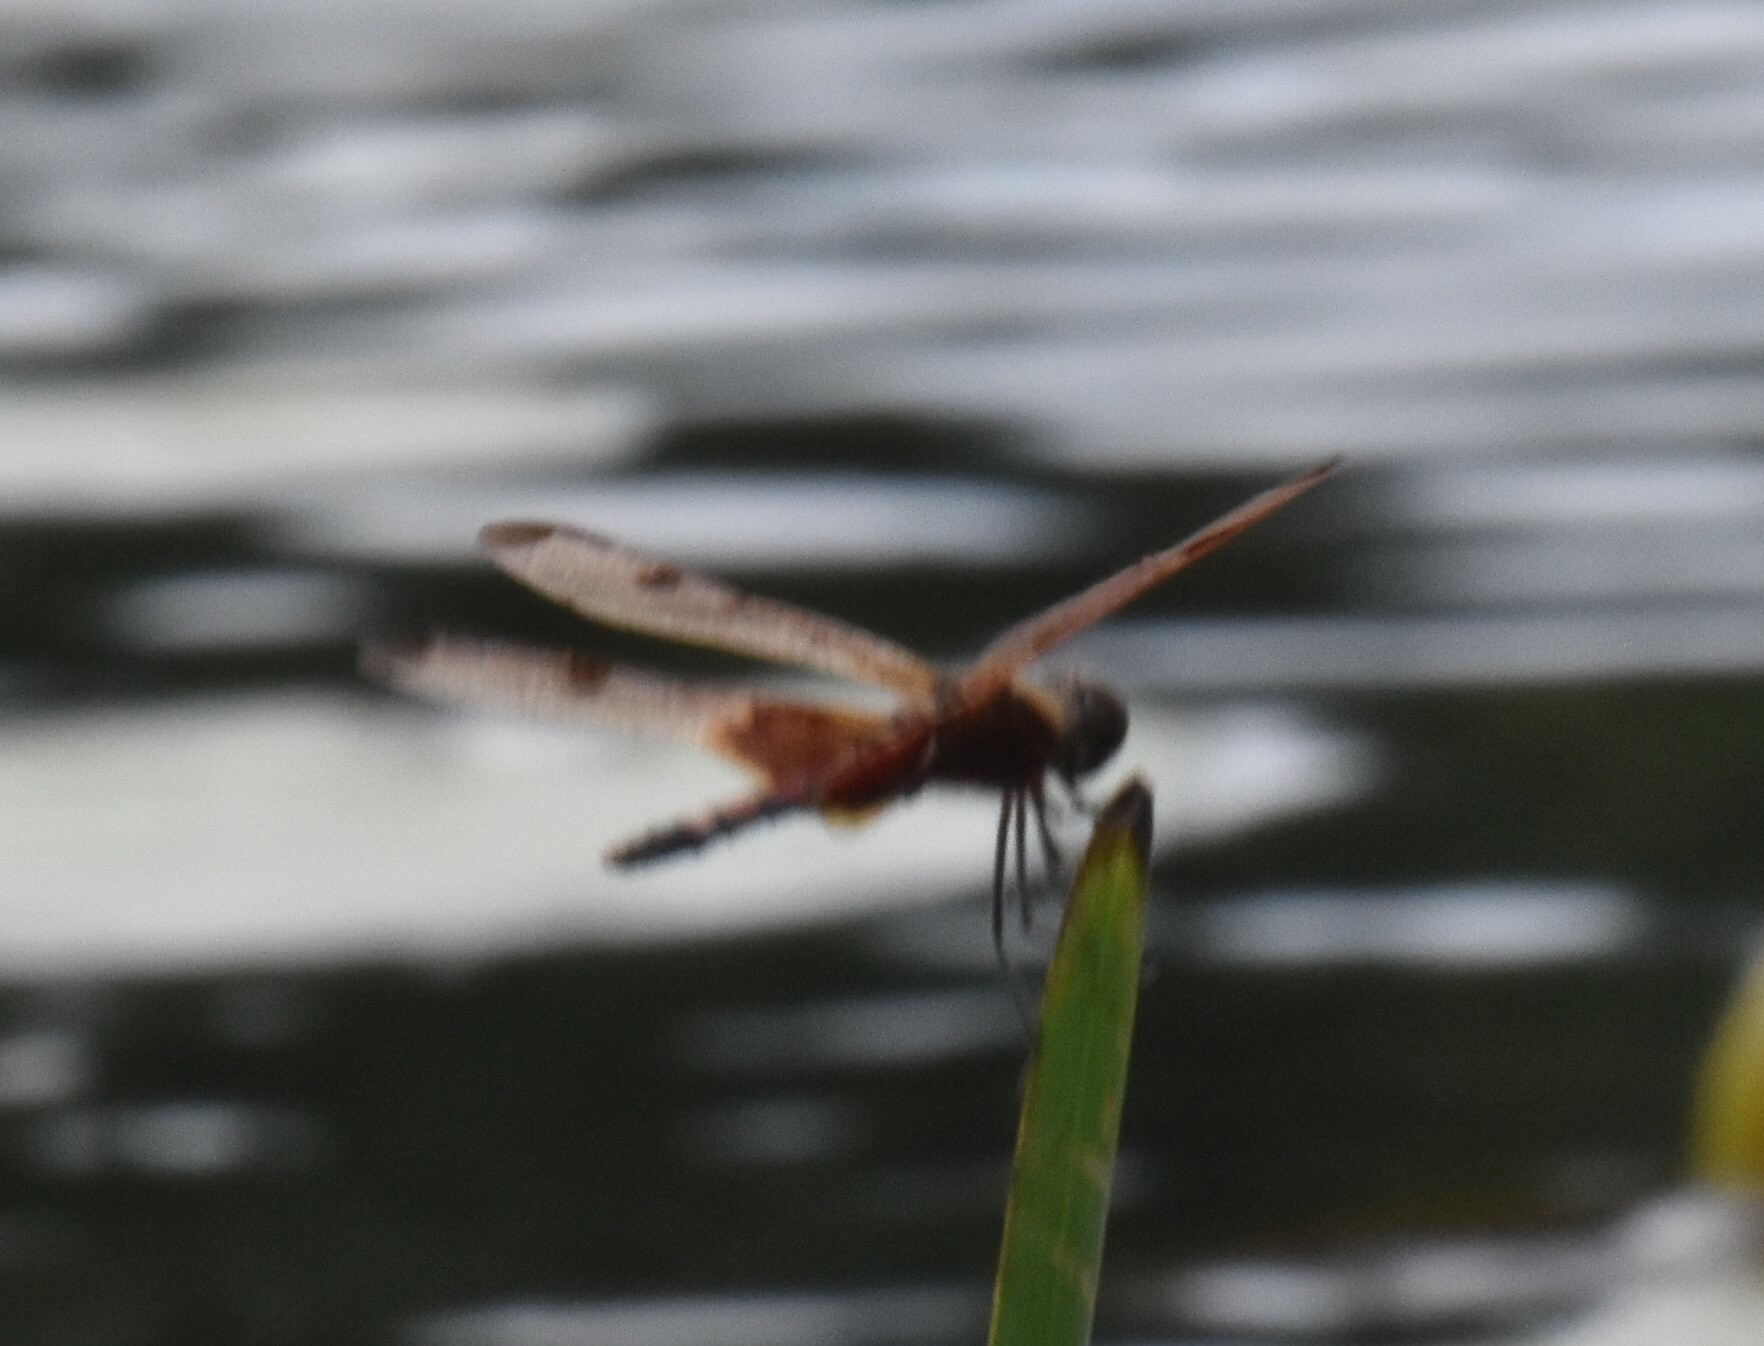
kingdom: Animalia
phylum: Arthropoda
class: Insecta
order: Odonata
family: Libellulidae
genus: Celithemis
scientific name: Celithemis elisa
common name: Calico pennant
